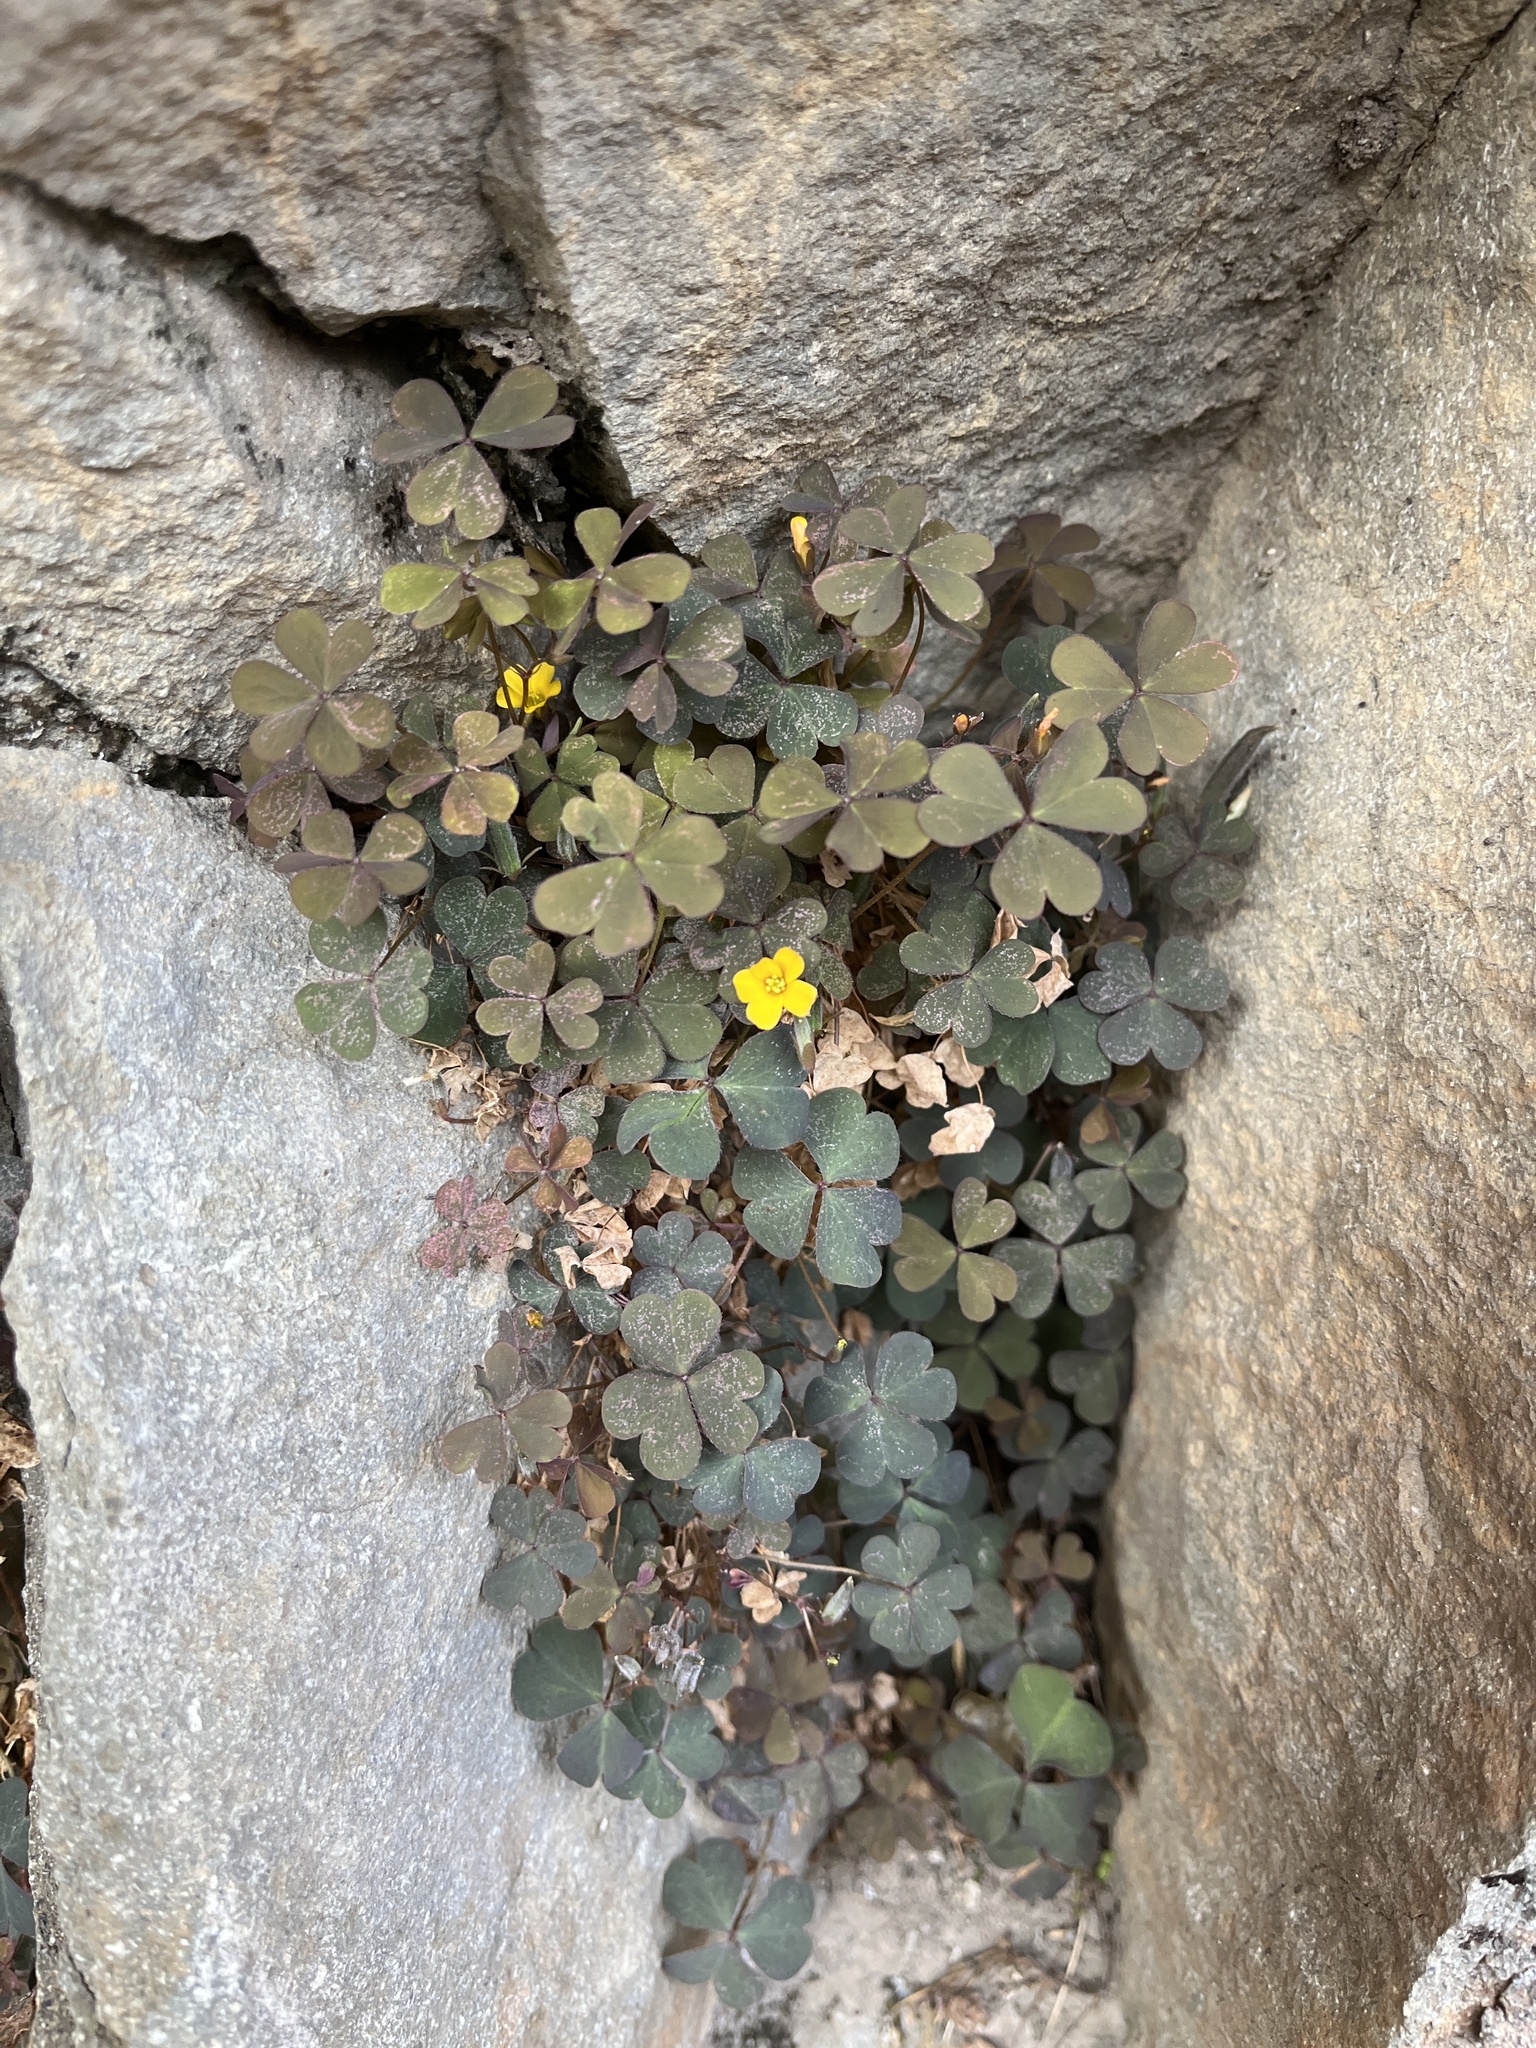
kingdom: Plantae
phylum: Tracheophyta
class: Magnoliopsida
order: Oxalidales
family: Oxalidaceae
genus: Oxalis
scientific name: Oxalis corniculata
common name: Procumbent yellow-sorrel
